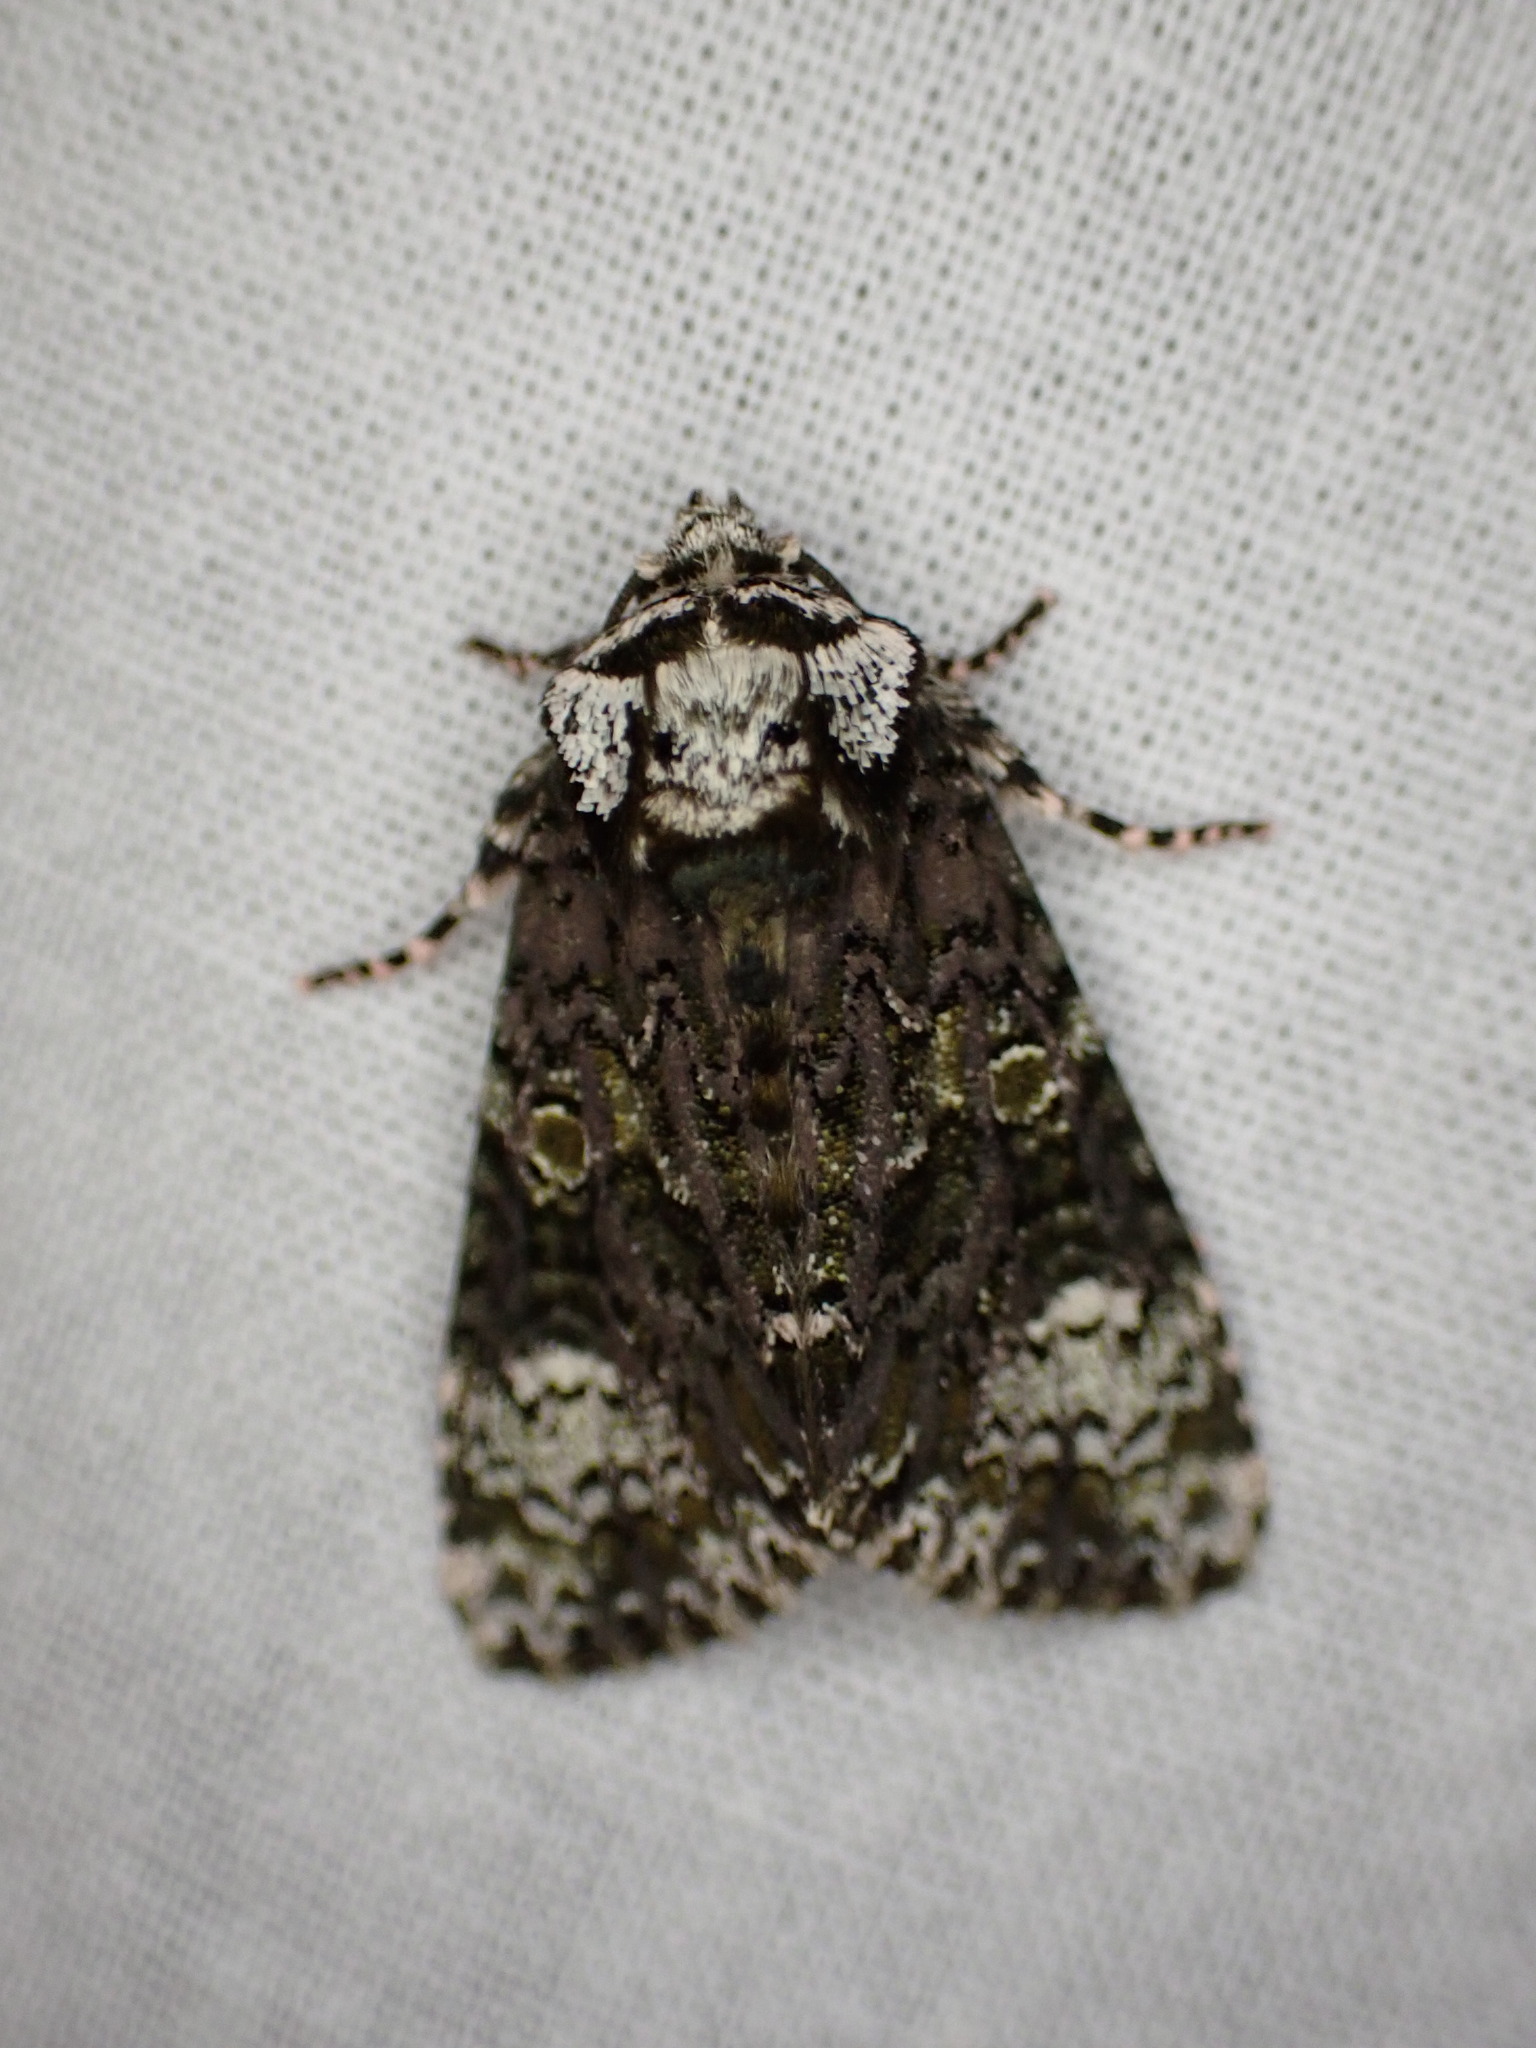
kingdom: Animalia
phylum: Arthropoda
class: Insecta
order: Lepidoptera
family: Noctuidae
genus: Craniophora
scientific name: Craniophora ligustri
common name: Coronet
